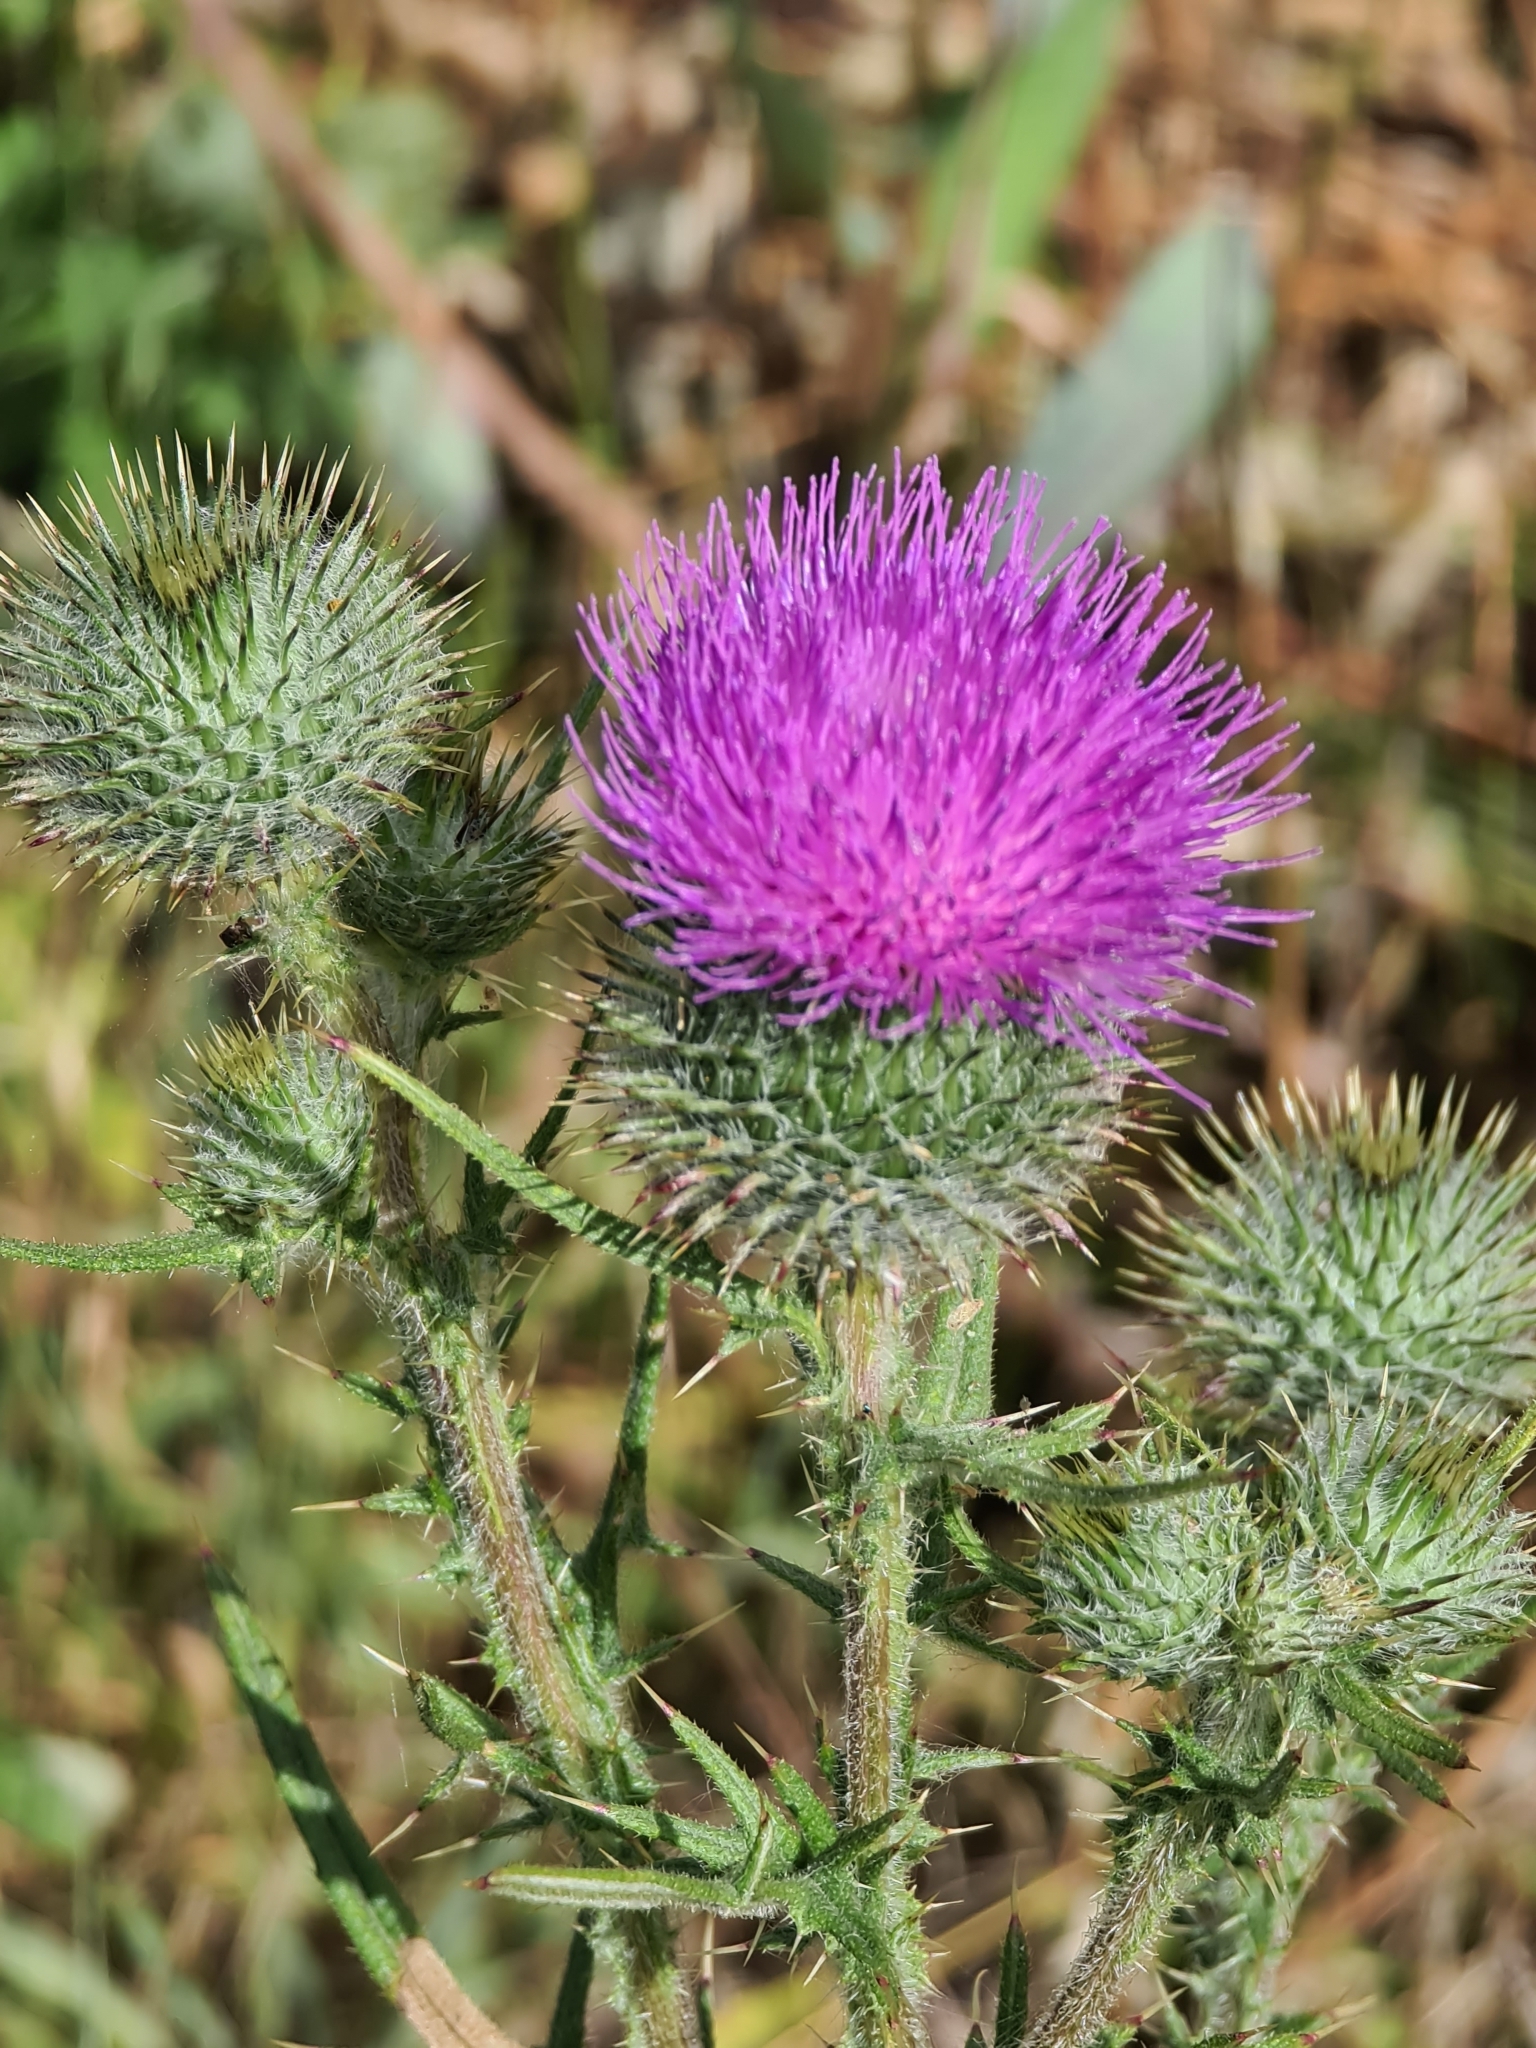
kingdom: Plantae
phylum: Tracheophyta
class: Magnoliopsida
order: Asterales
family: Asteraceae
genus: Cirsium
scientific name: Cirsium vulgare
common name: Bull thistle
